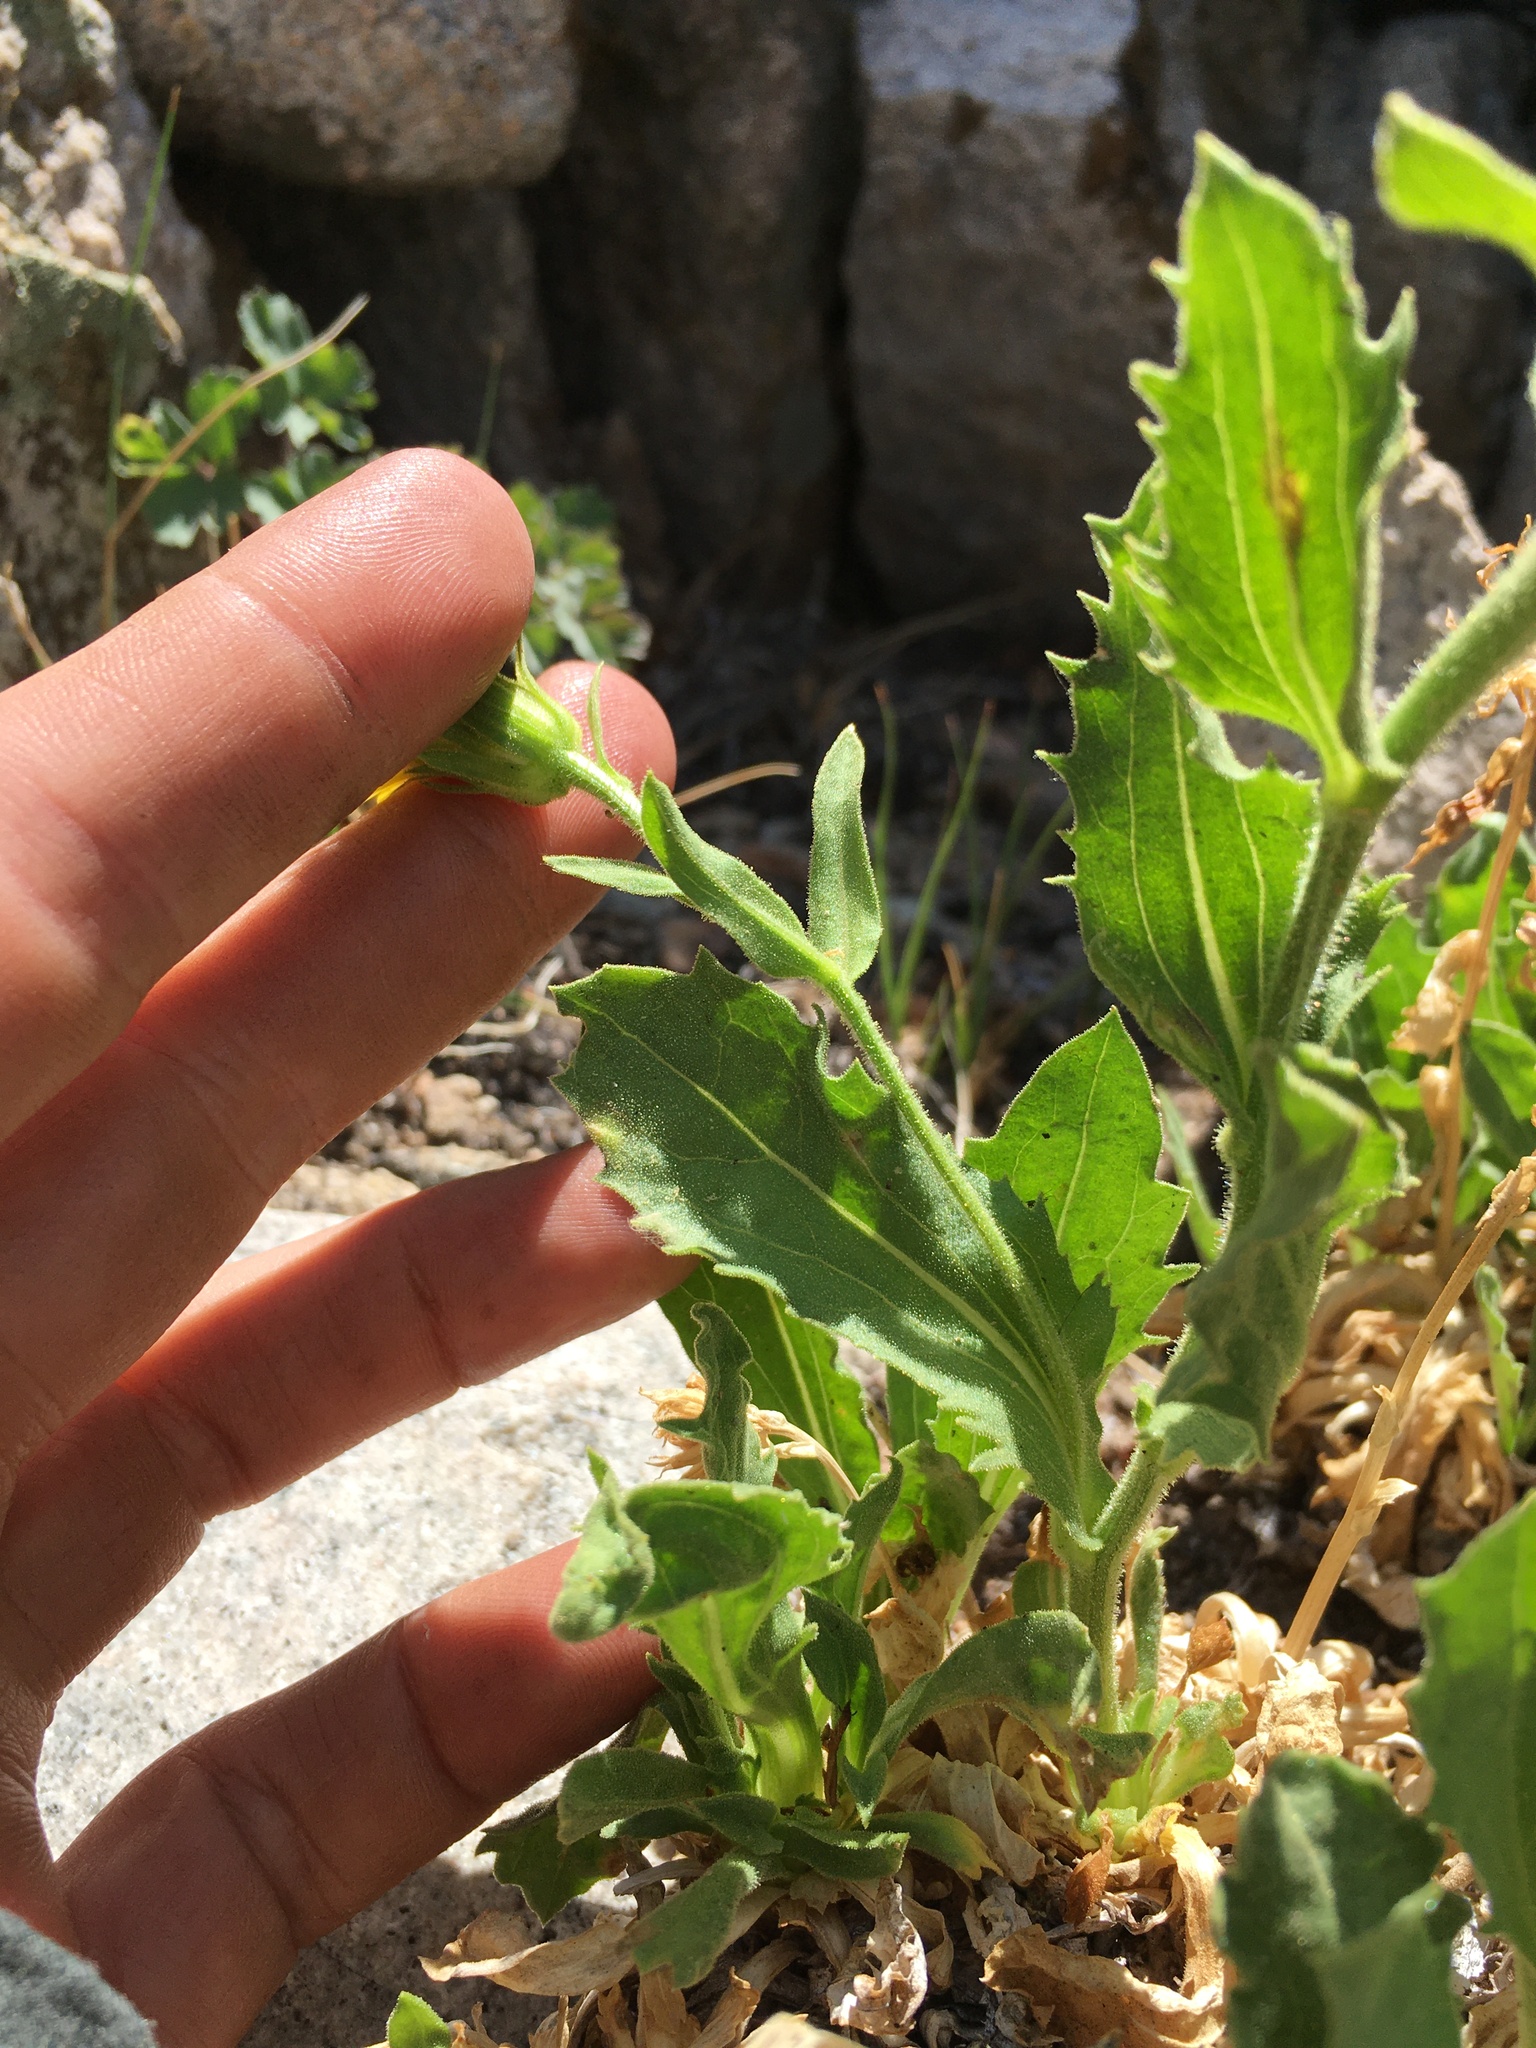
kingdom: Plantae
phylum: Tracheophyta
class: Magnoliopsida
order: Asterales
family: Asteraceae
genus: Toiyabea
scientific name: Toiyabea peirsonii
